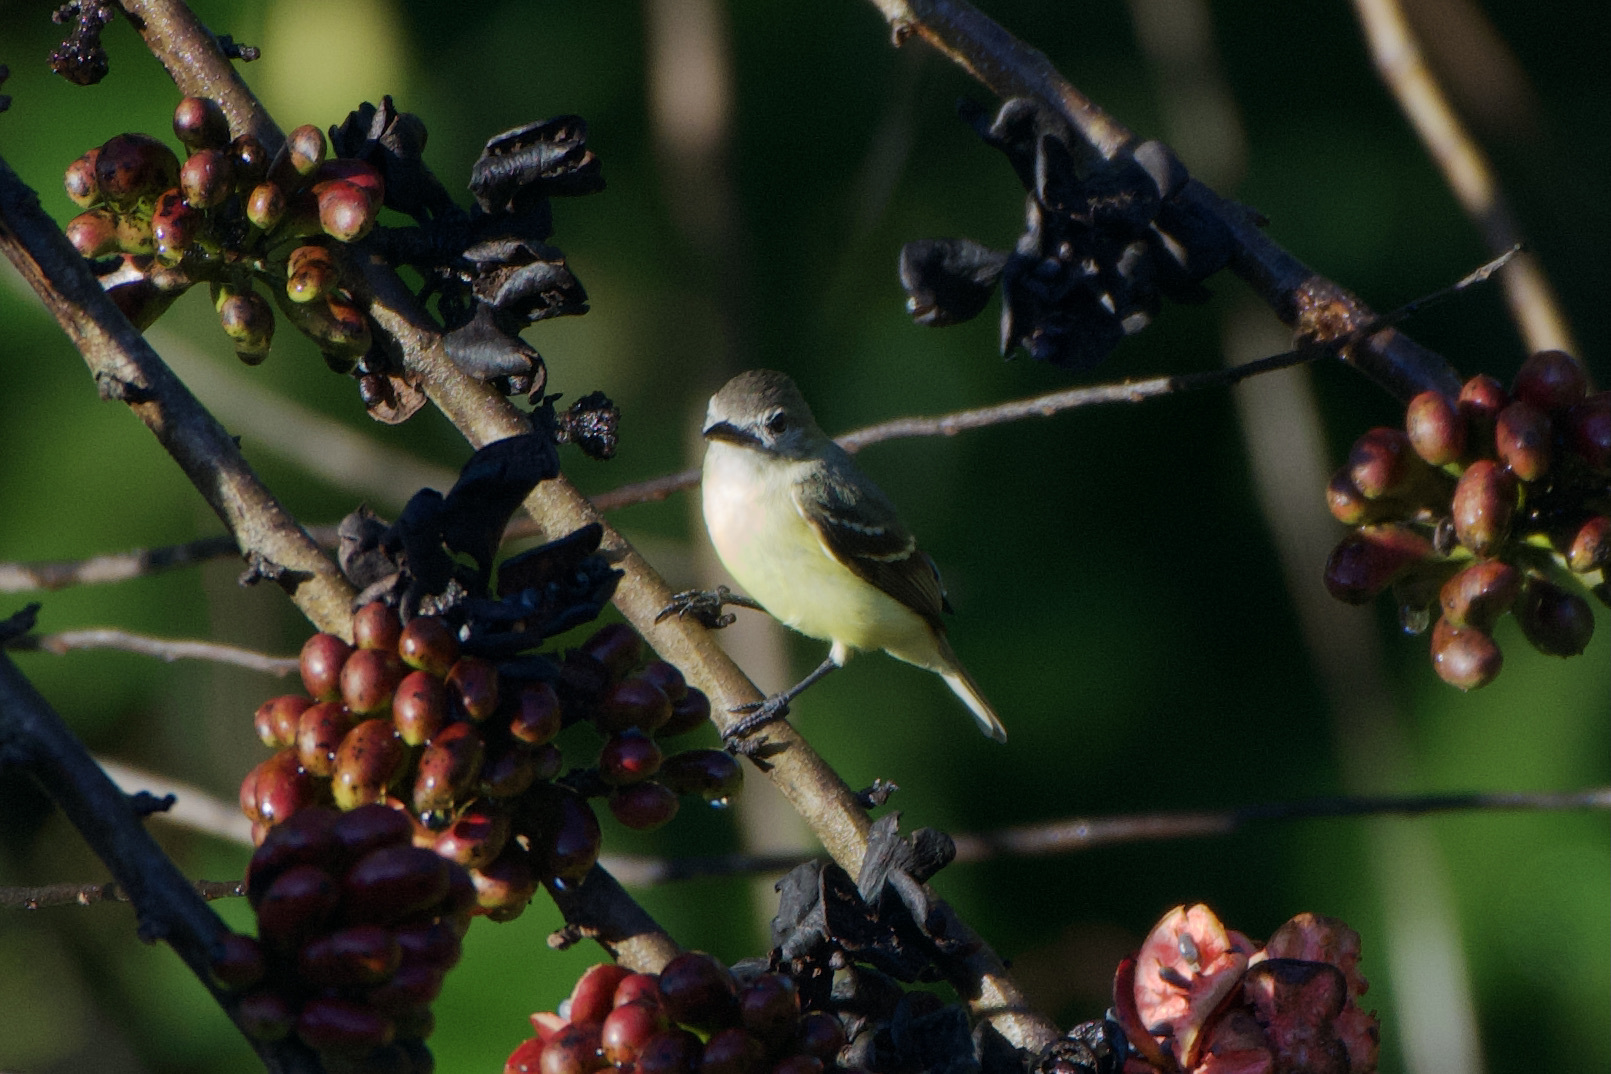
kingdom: Animalia
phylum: Chordata
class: Aves
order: Passeriformes
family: Tyrannidae
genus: Phaeomyias
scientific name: Phaeomyias murina
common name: Mouse-colored tyrannulet
